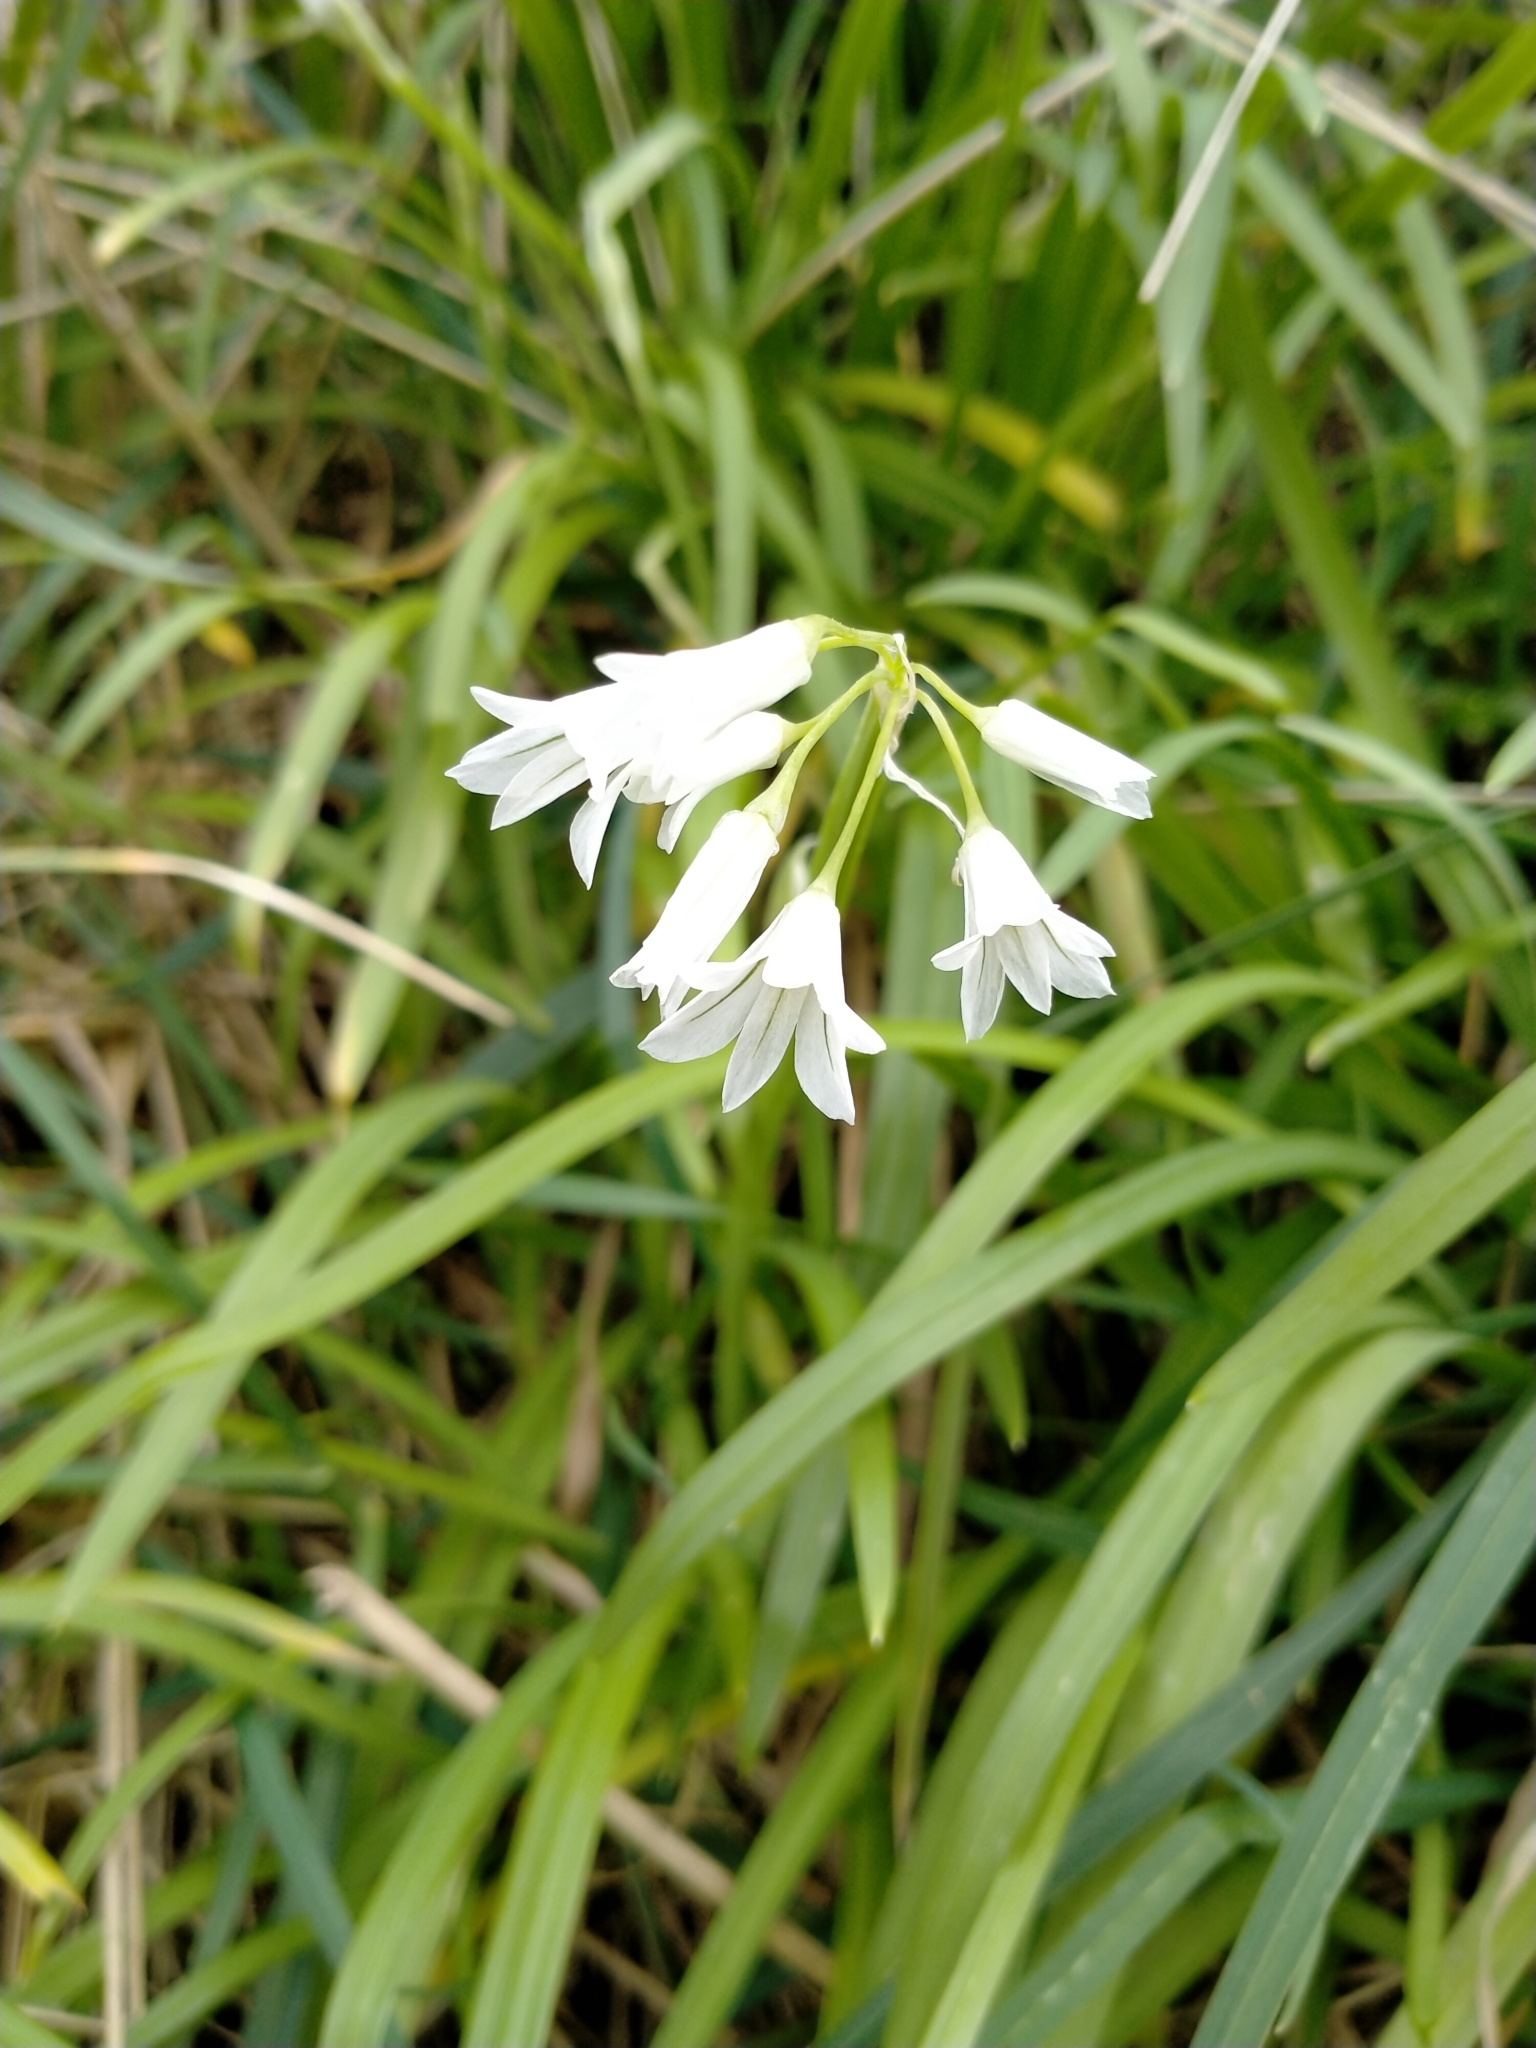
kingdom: Plantae
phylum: Tracheophyta
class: Liliopsida
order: Asparagales
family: Amaryllidaceae
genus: Allium
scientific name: Allium triquetrum
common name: Three-cornered garlic
